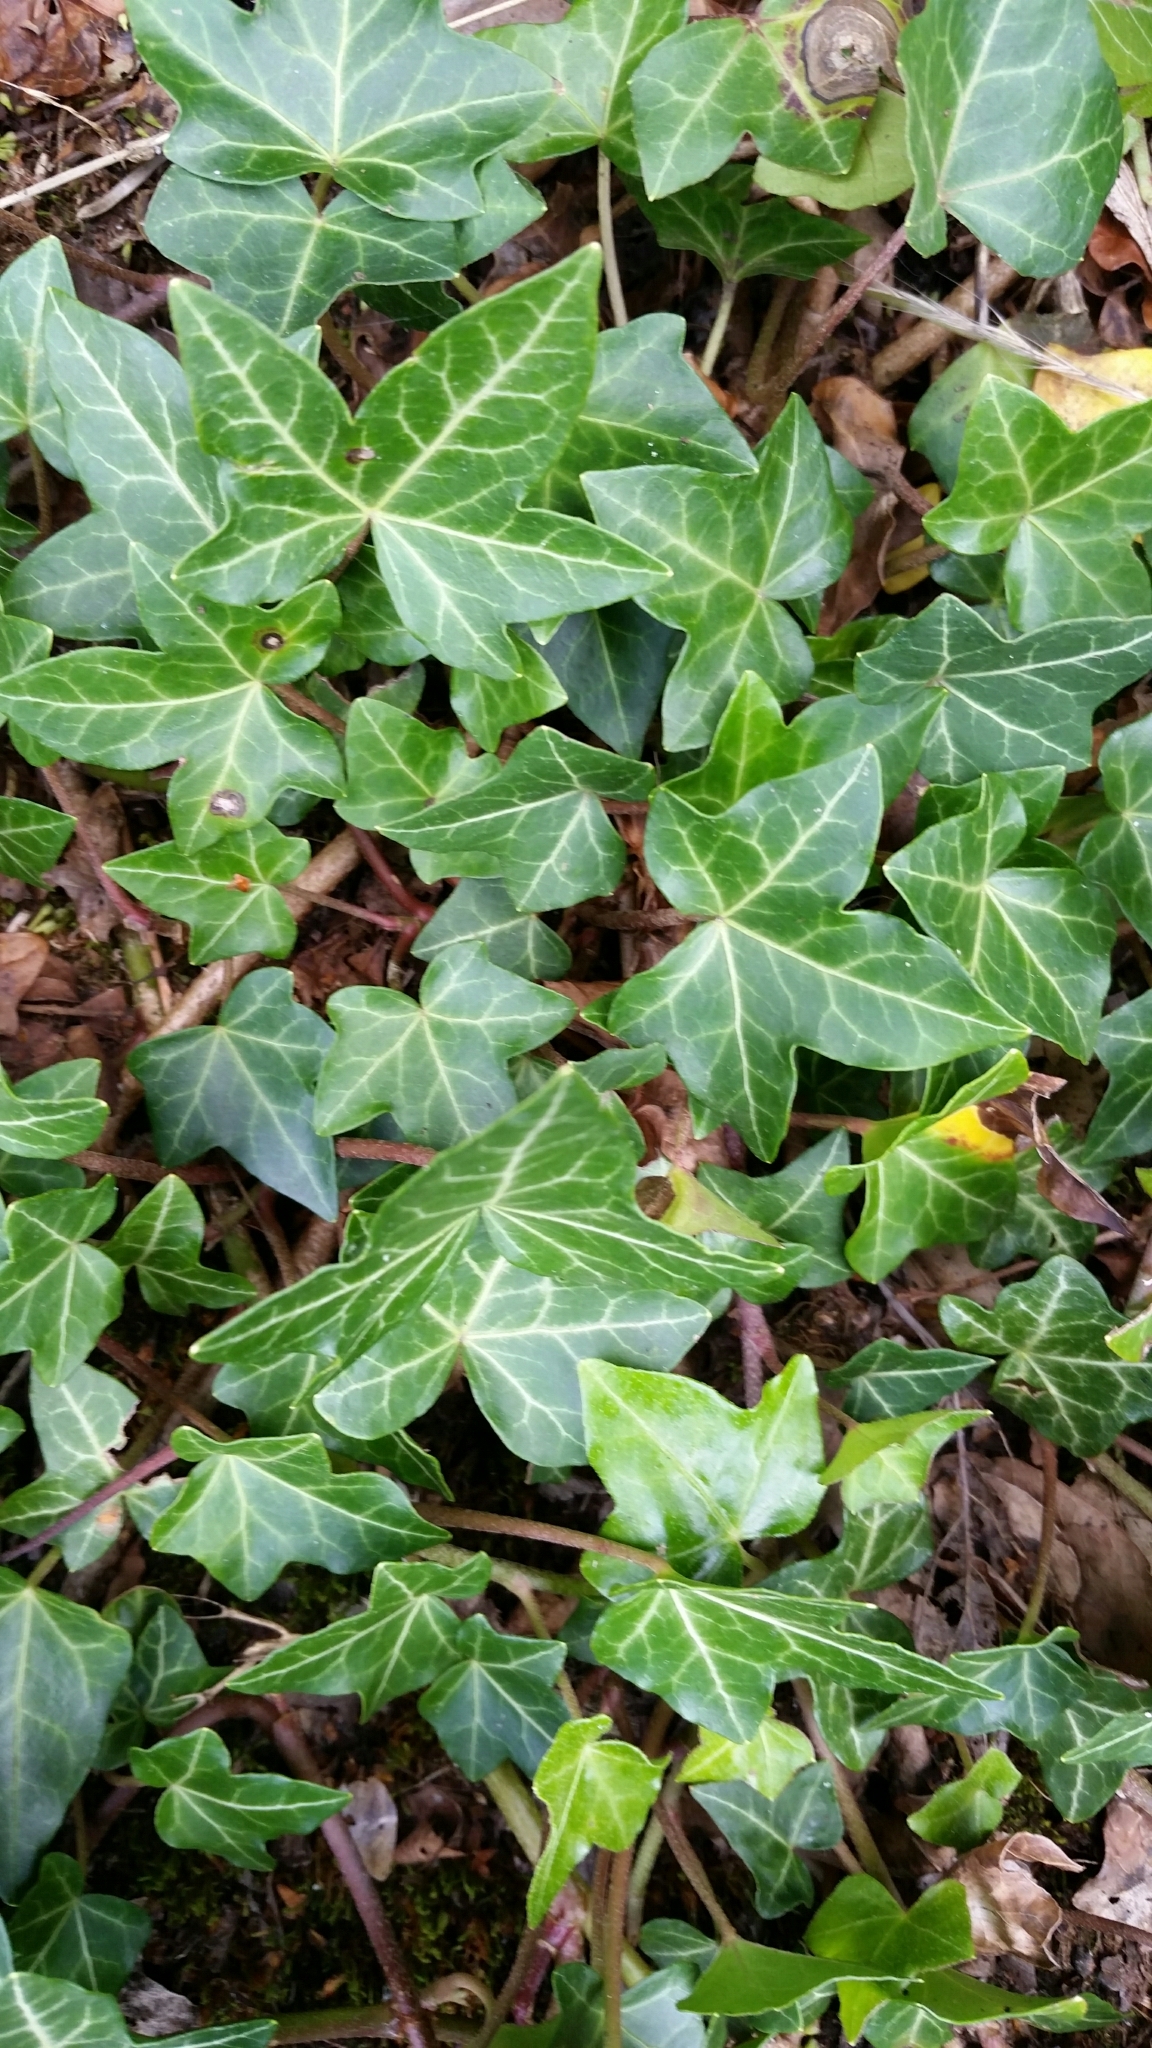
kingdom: Plantae
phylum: Tracheophyta
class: Magnoliopsida
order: Apiales
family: Araliaceae
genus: Hedera
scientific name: Hedera helix
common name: Ivy
